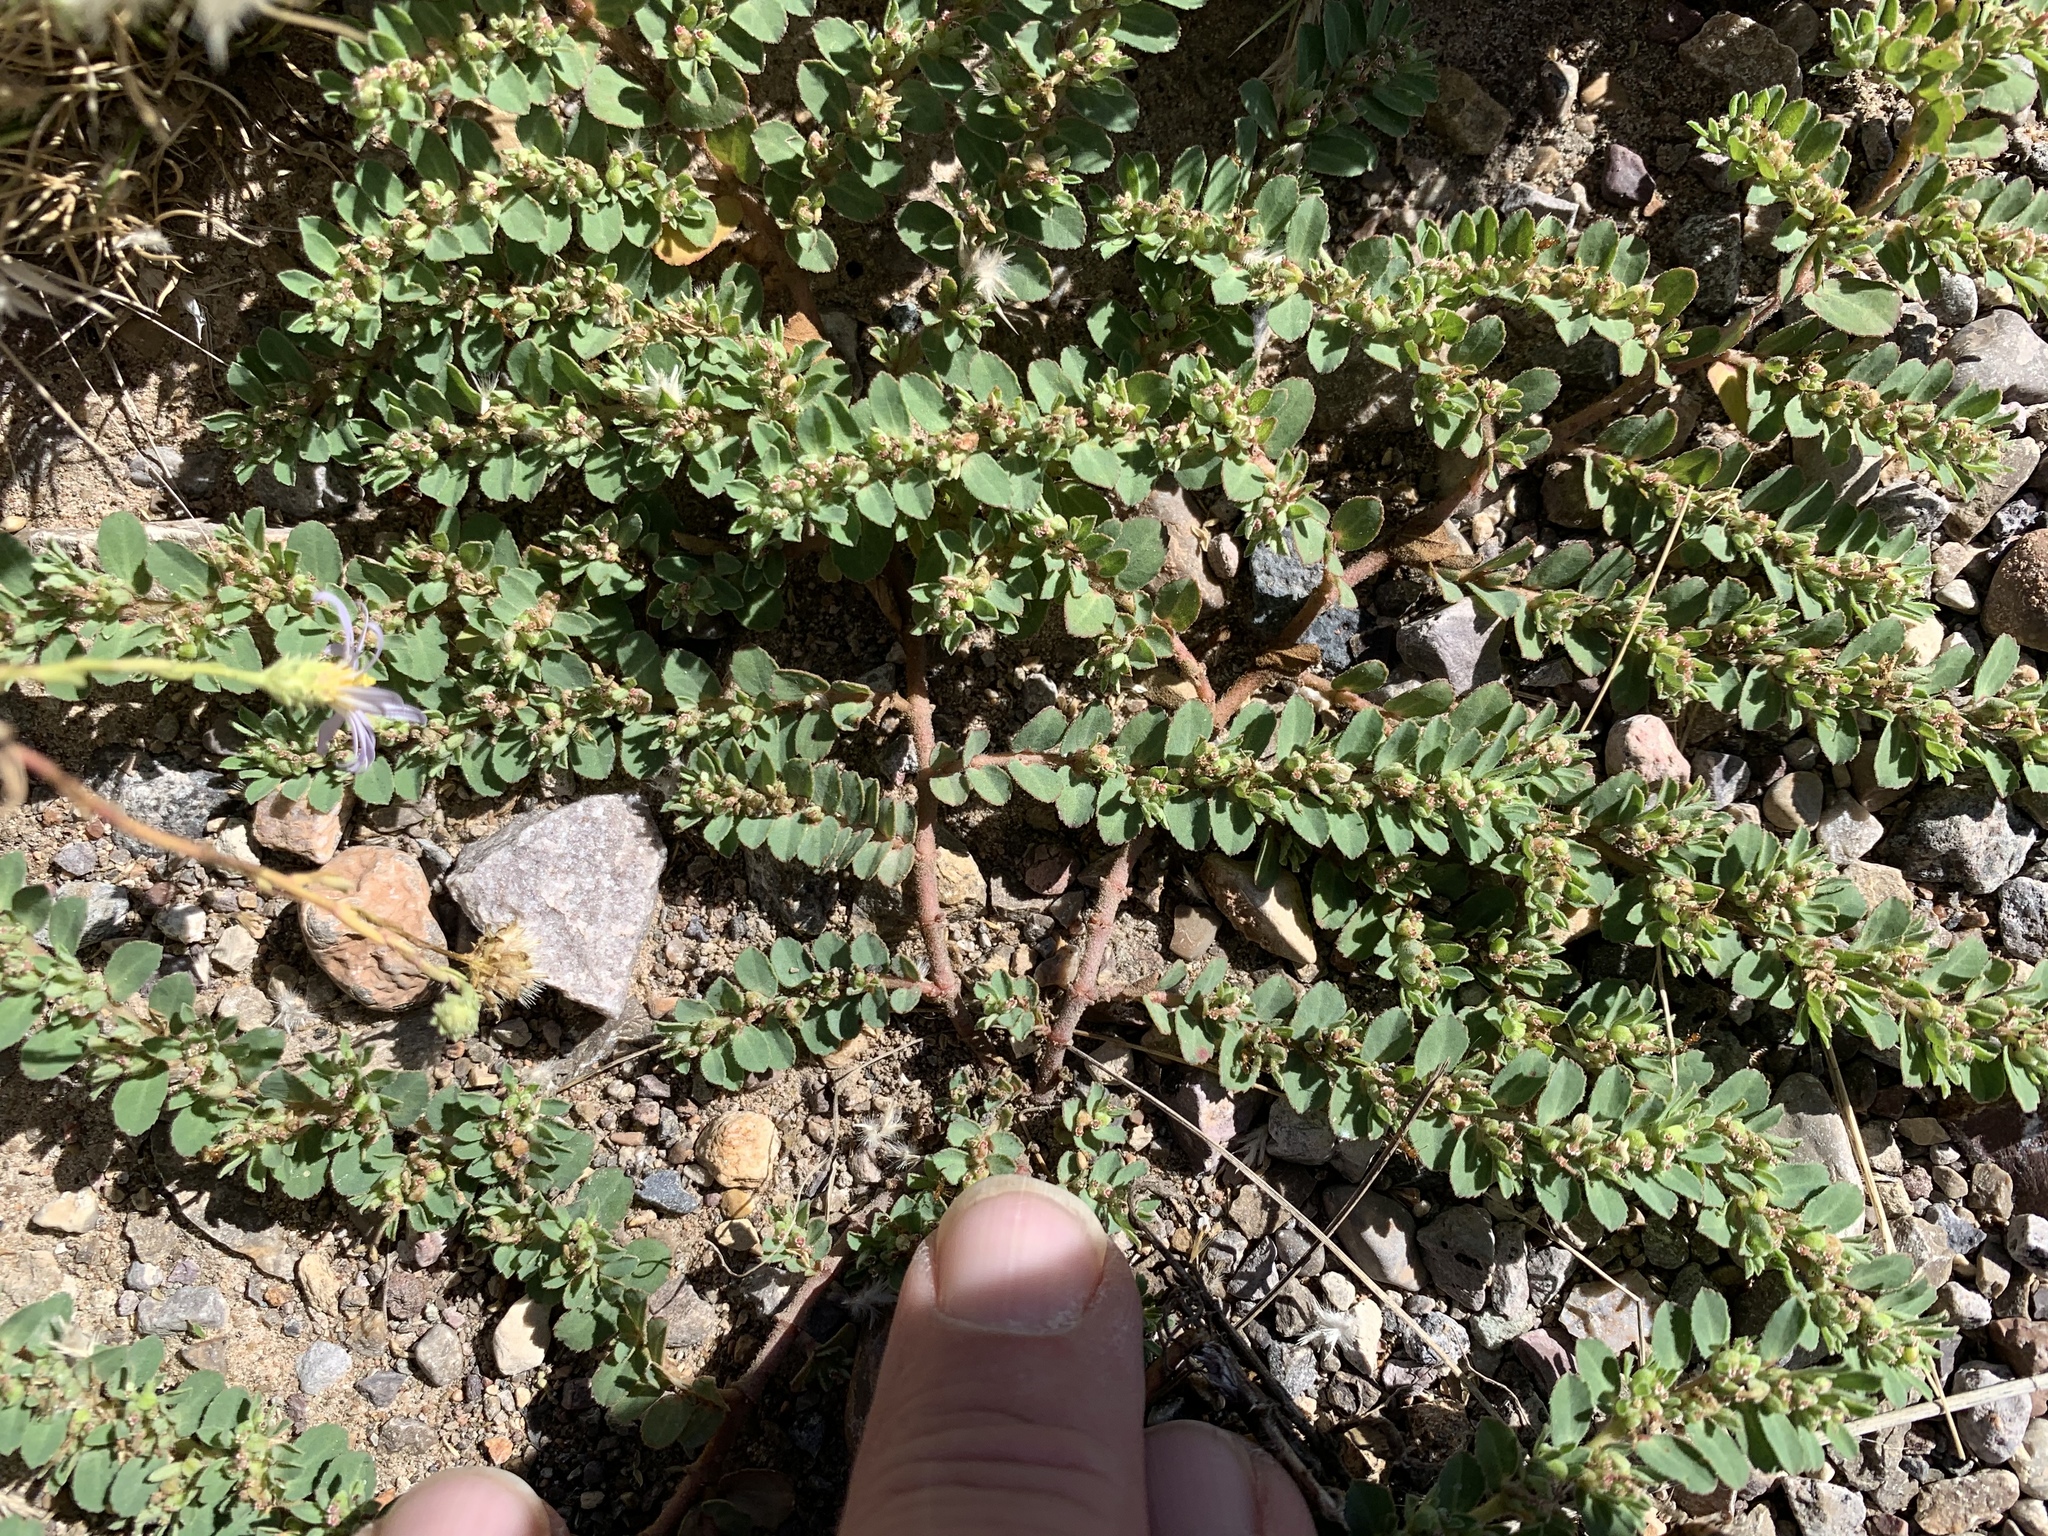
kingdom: Plantae
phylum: Tracheophyta
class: Magnoliopsida
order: Malpighiales
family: Euphorbiaceae
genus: Euphorbia
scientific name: Euphorbia stictospora
